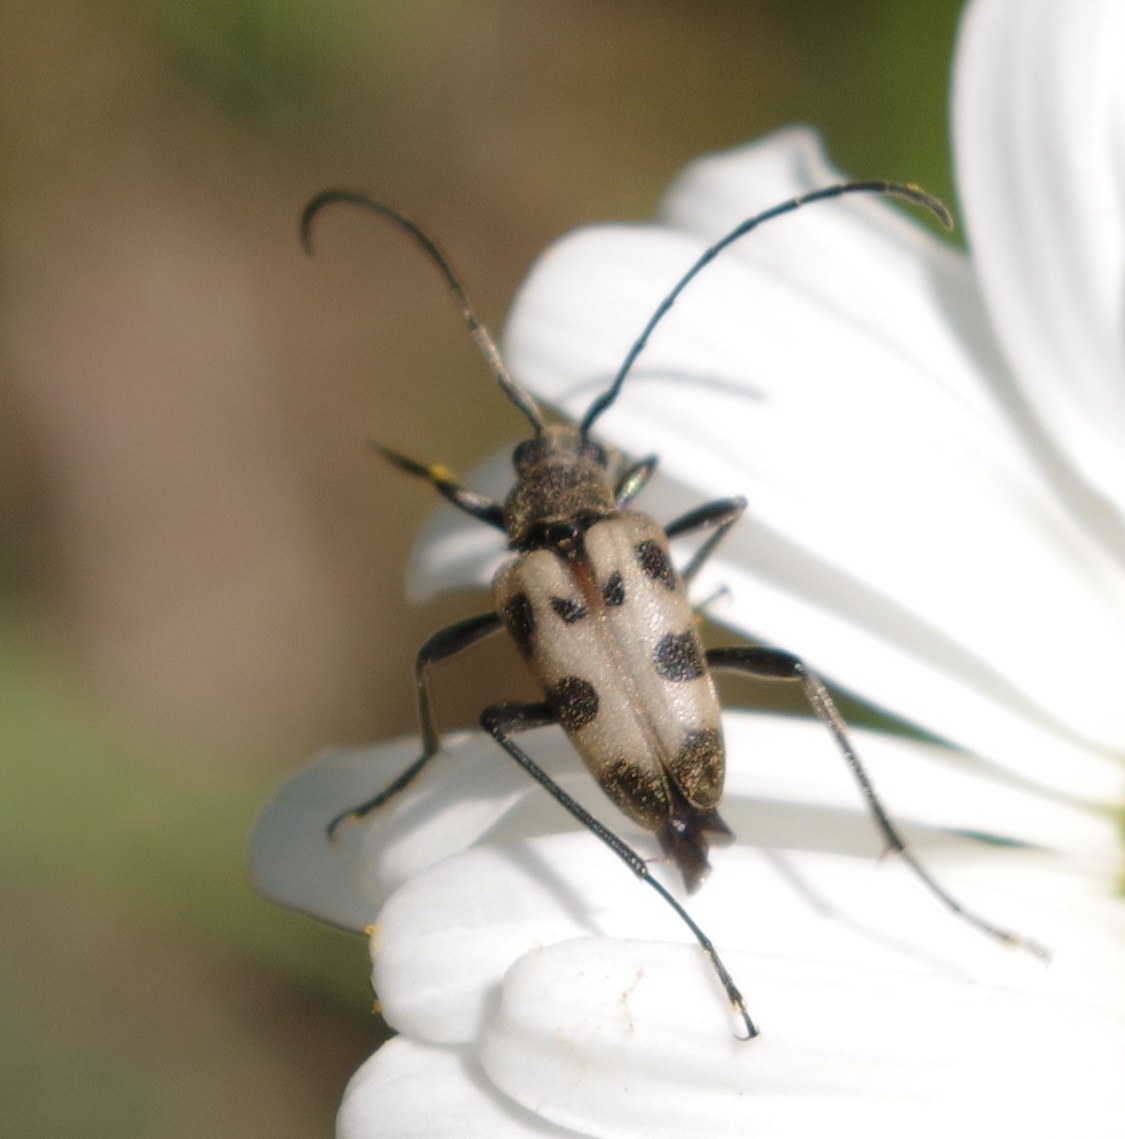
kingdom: Animalia
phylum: Arthropoda
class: Insecta
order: Coleoptera
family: Cerambycidae
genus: Pachytodes
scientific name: Pachytodes cerambyciformis
